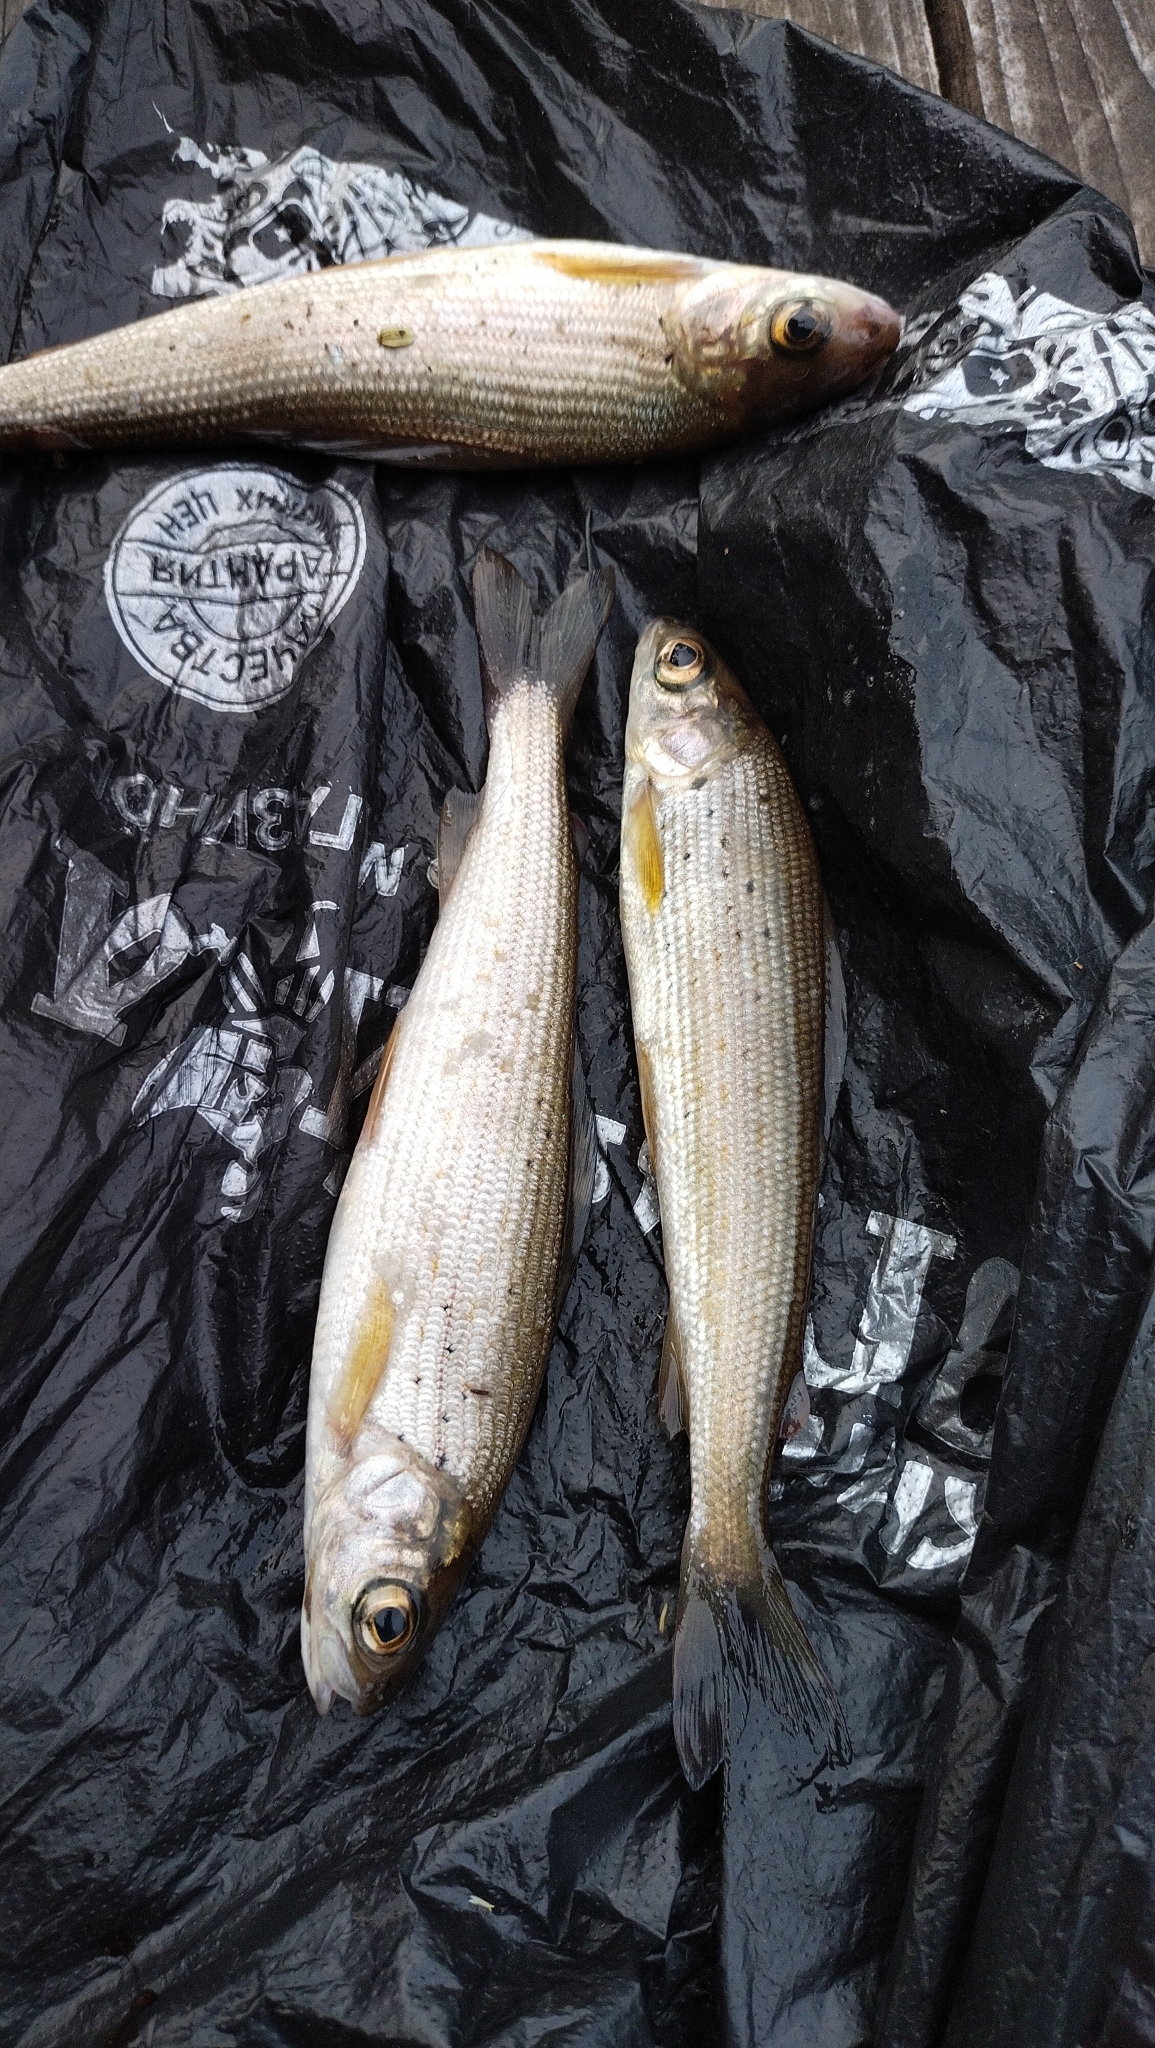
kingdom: Animalia
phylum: Chordata
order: Salmoniformes
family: Salmonidae
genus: Thymallus
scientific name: Thymallus arcticus
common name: Arctic grayling
